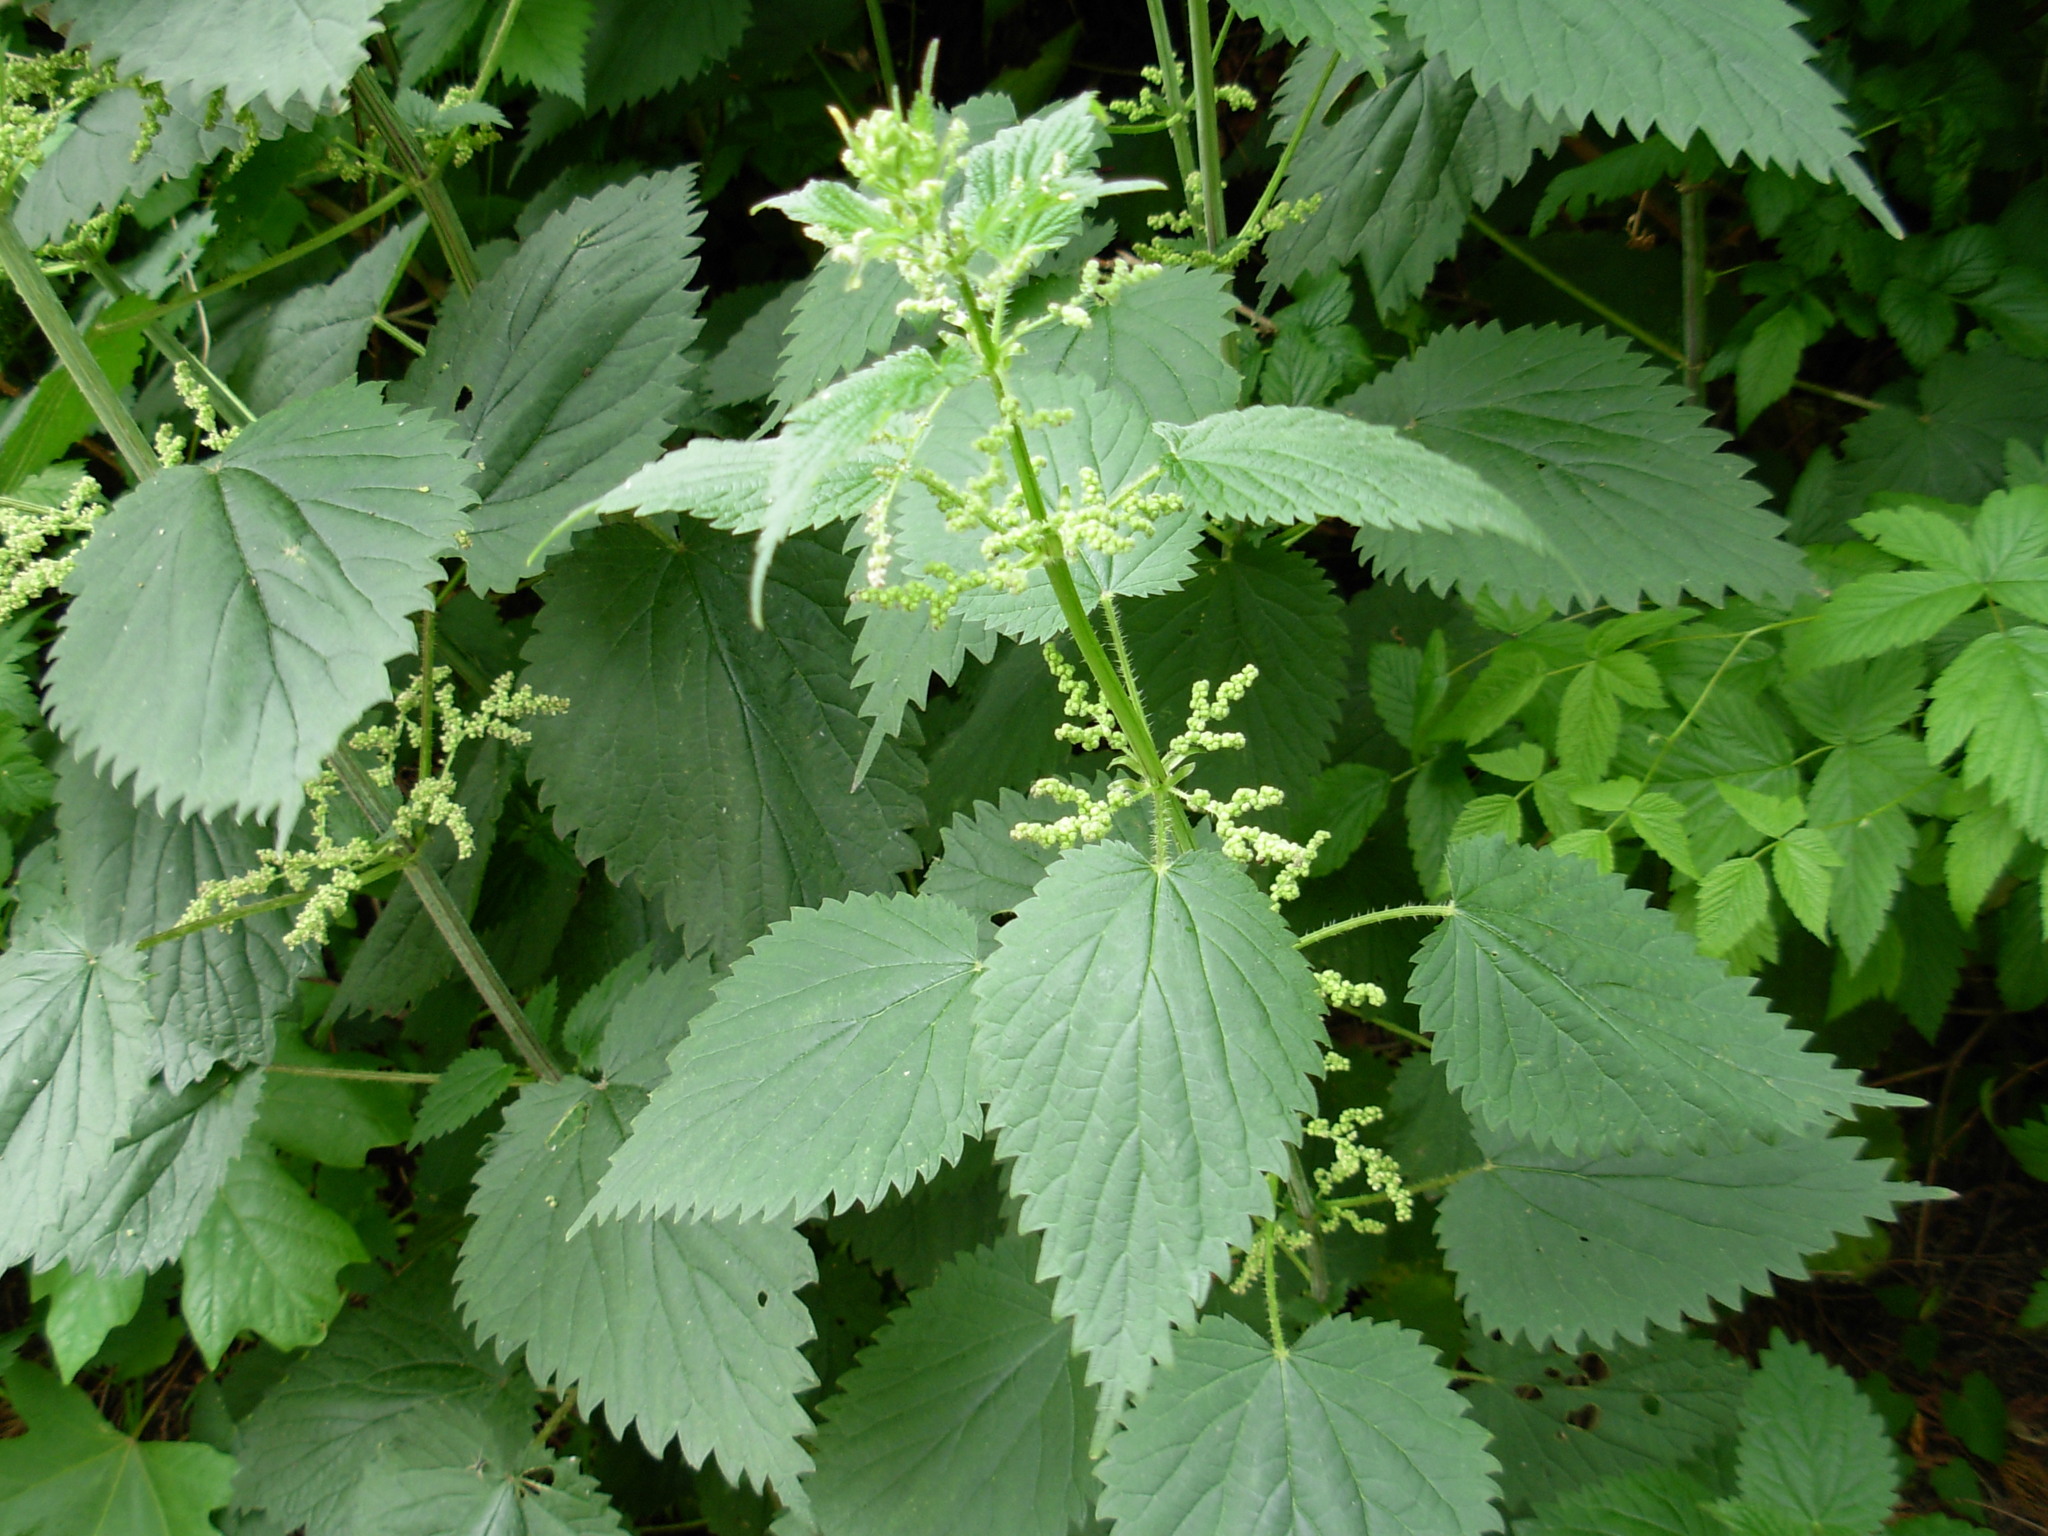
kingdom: Plantae
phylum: Tracheophyta
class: Magnoliopsida
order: Rosales
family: Urticaceae
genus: Urtica
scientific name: Urtica gracilis
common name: Slender stinging nettle
